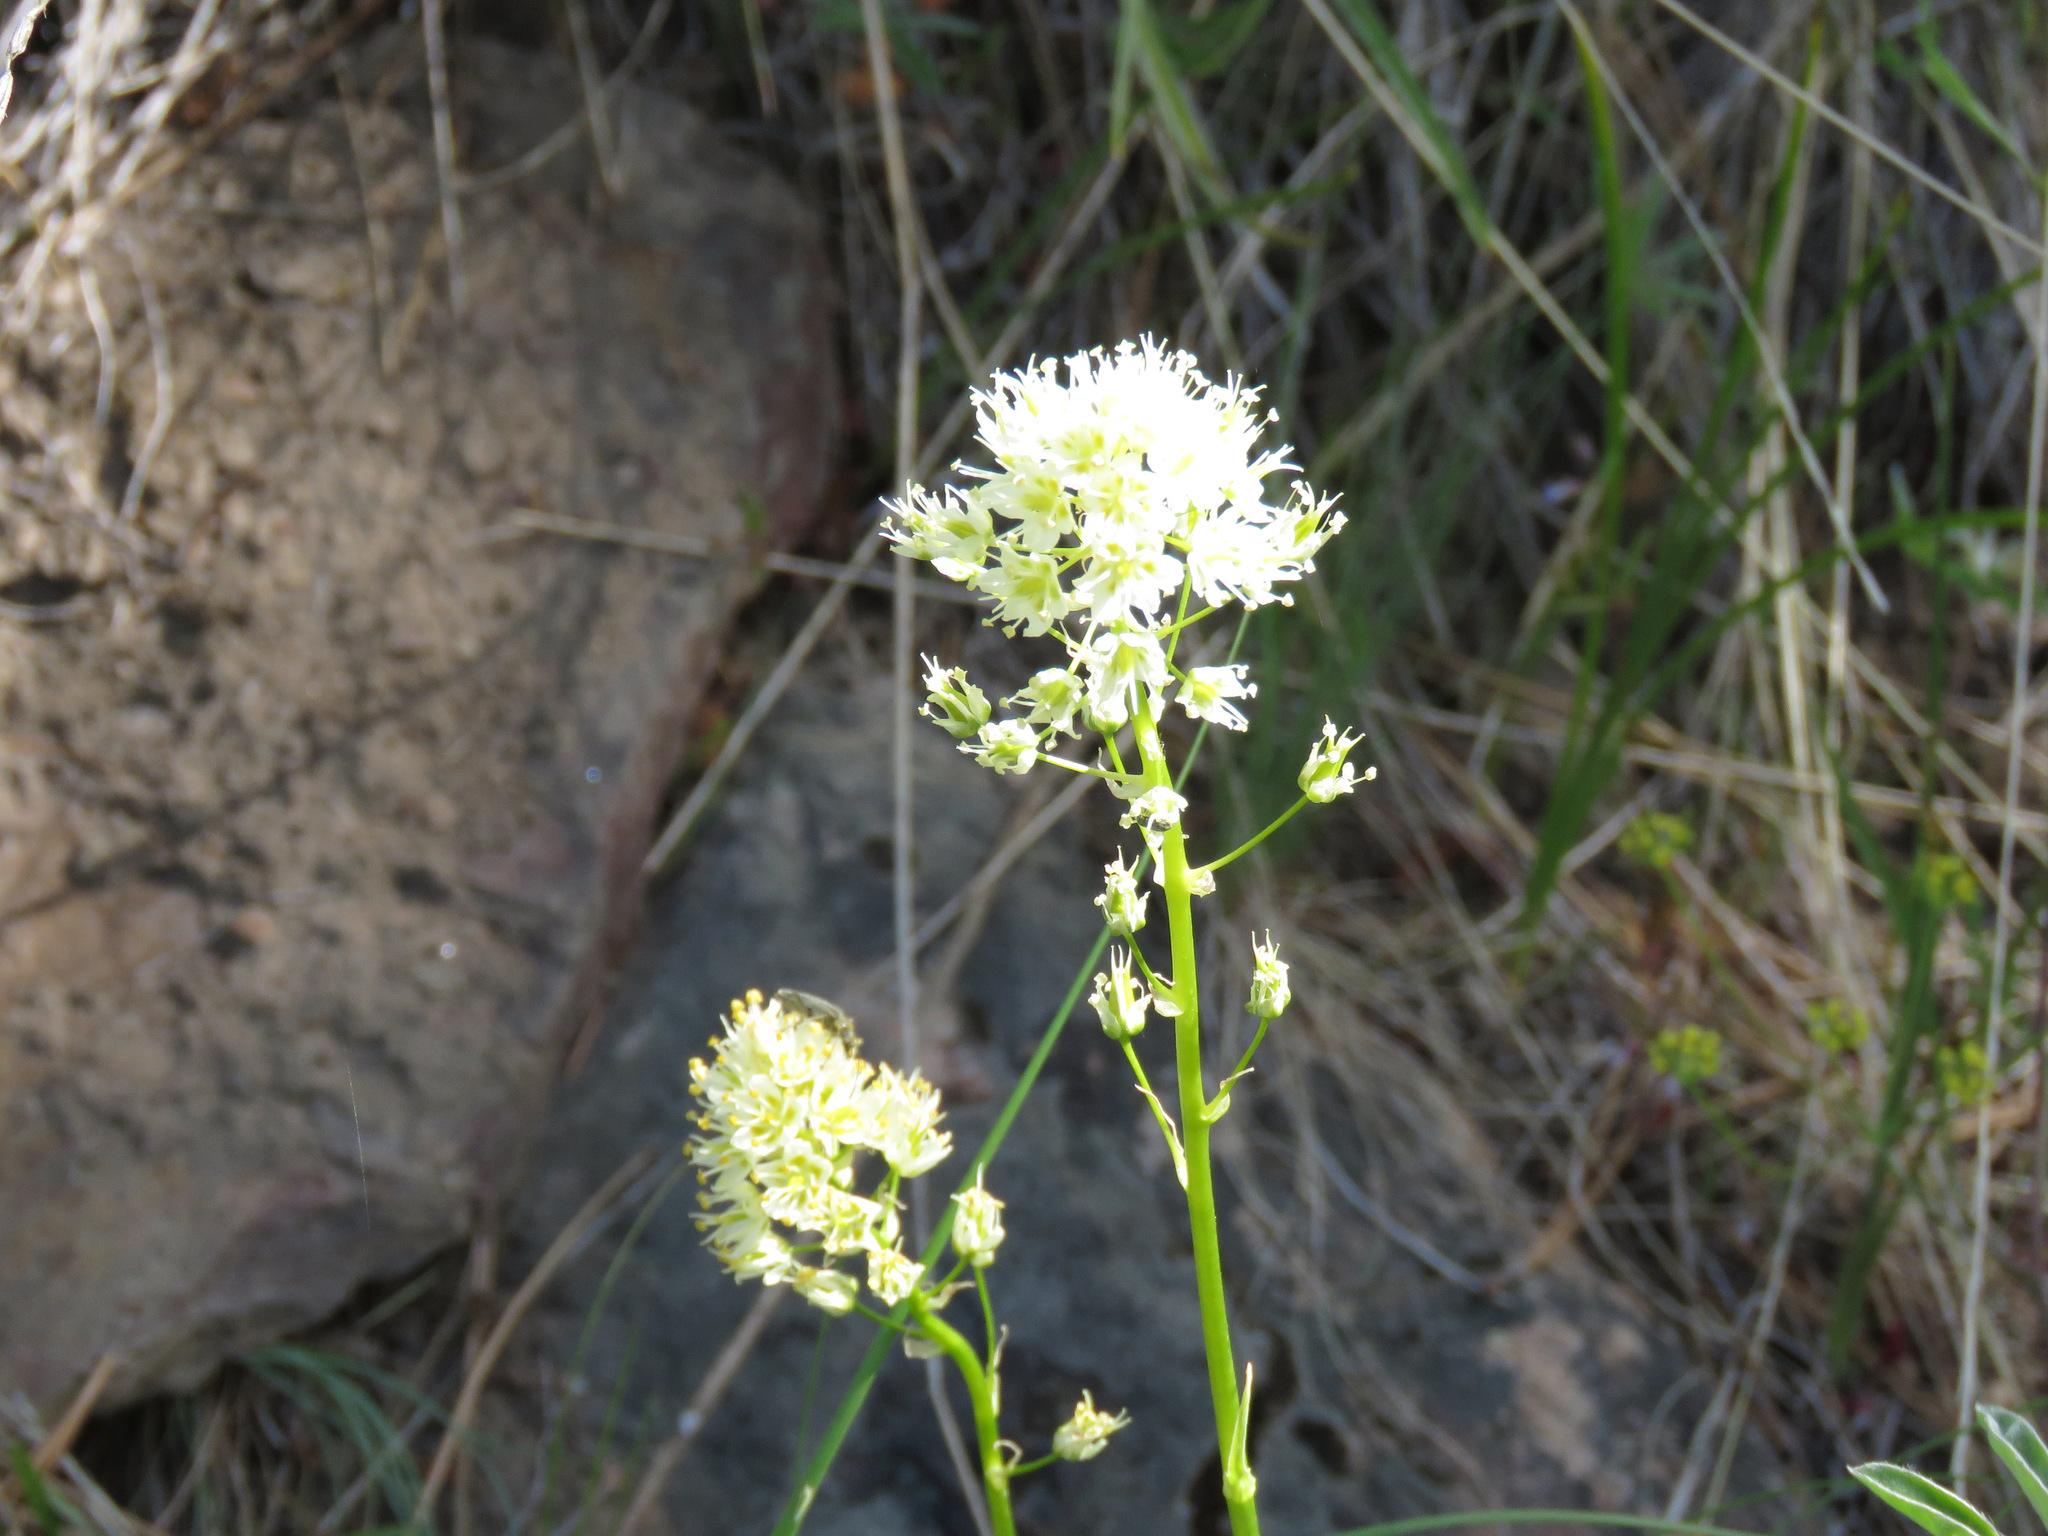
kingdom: Plantae
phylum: Tracheophyta
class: Liliopsida
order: Liliales
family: Melanthiaceae
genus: Toxicoscordion
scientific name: Toxicoscordion venenosum
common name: Meadow death camas
